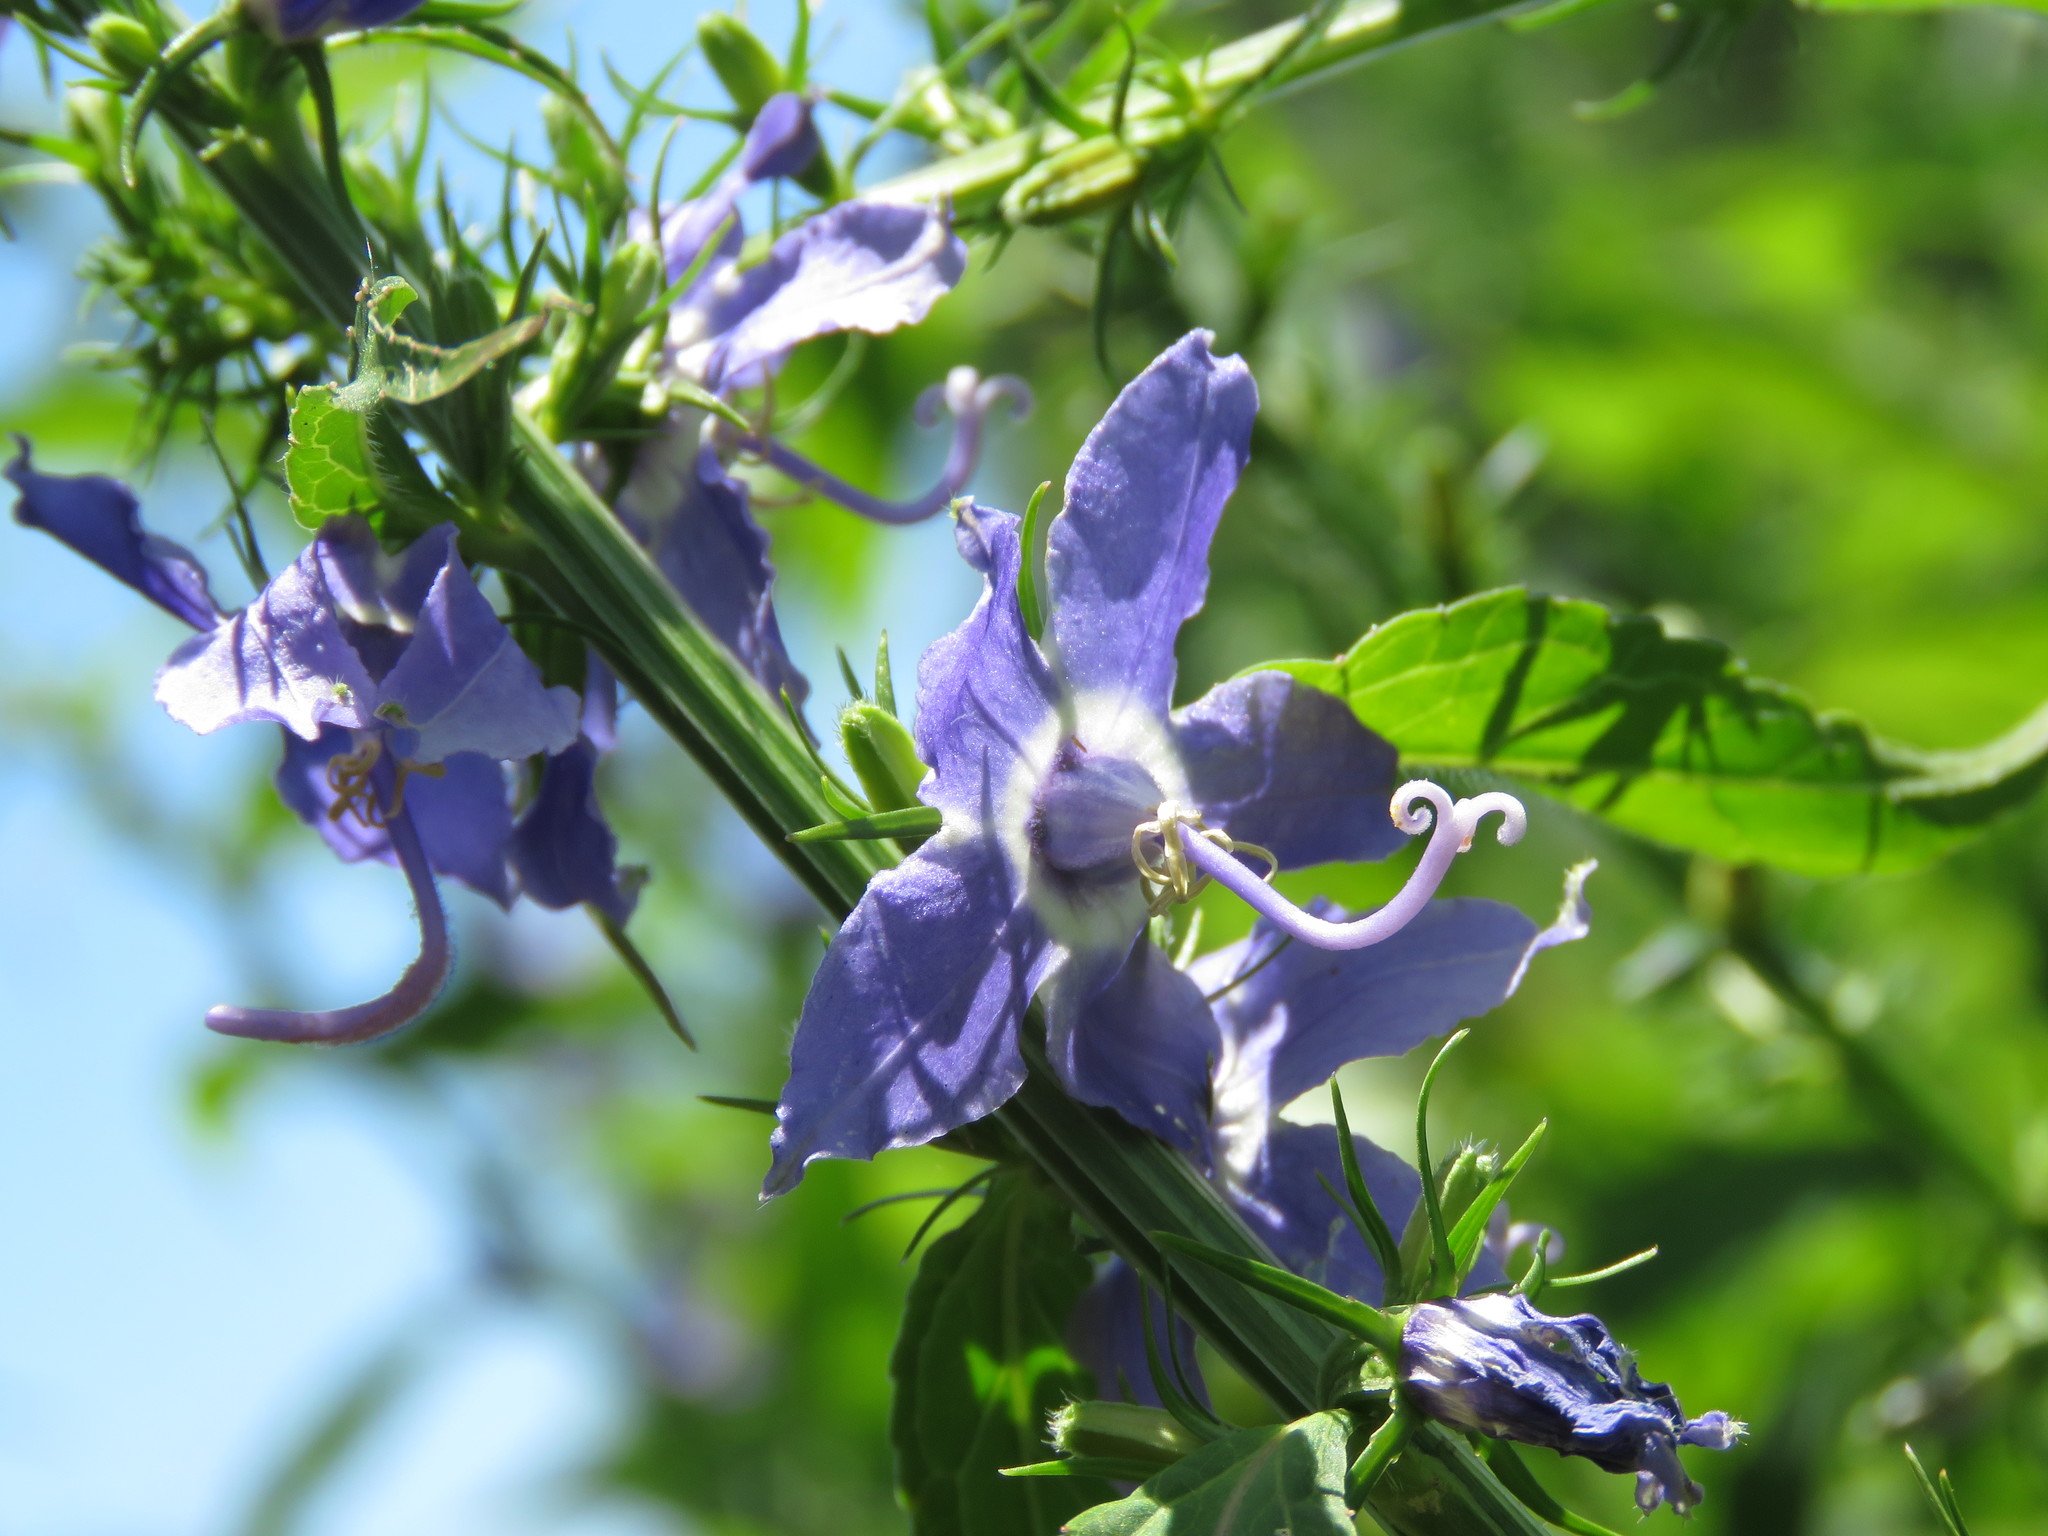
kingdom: Plantae
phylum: Tracheophyta
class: Magnoliopsida
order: Asterales
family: Campanulaceae
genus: Campanulastrum
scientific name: Campanulastrum americanum
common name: American bellflower
